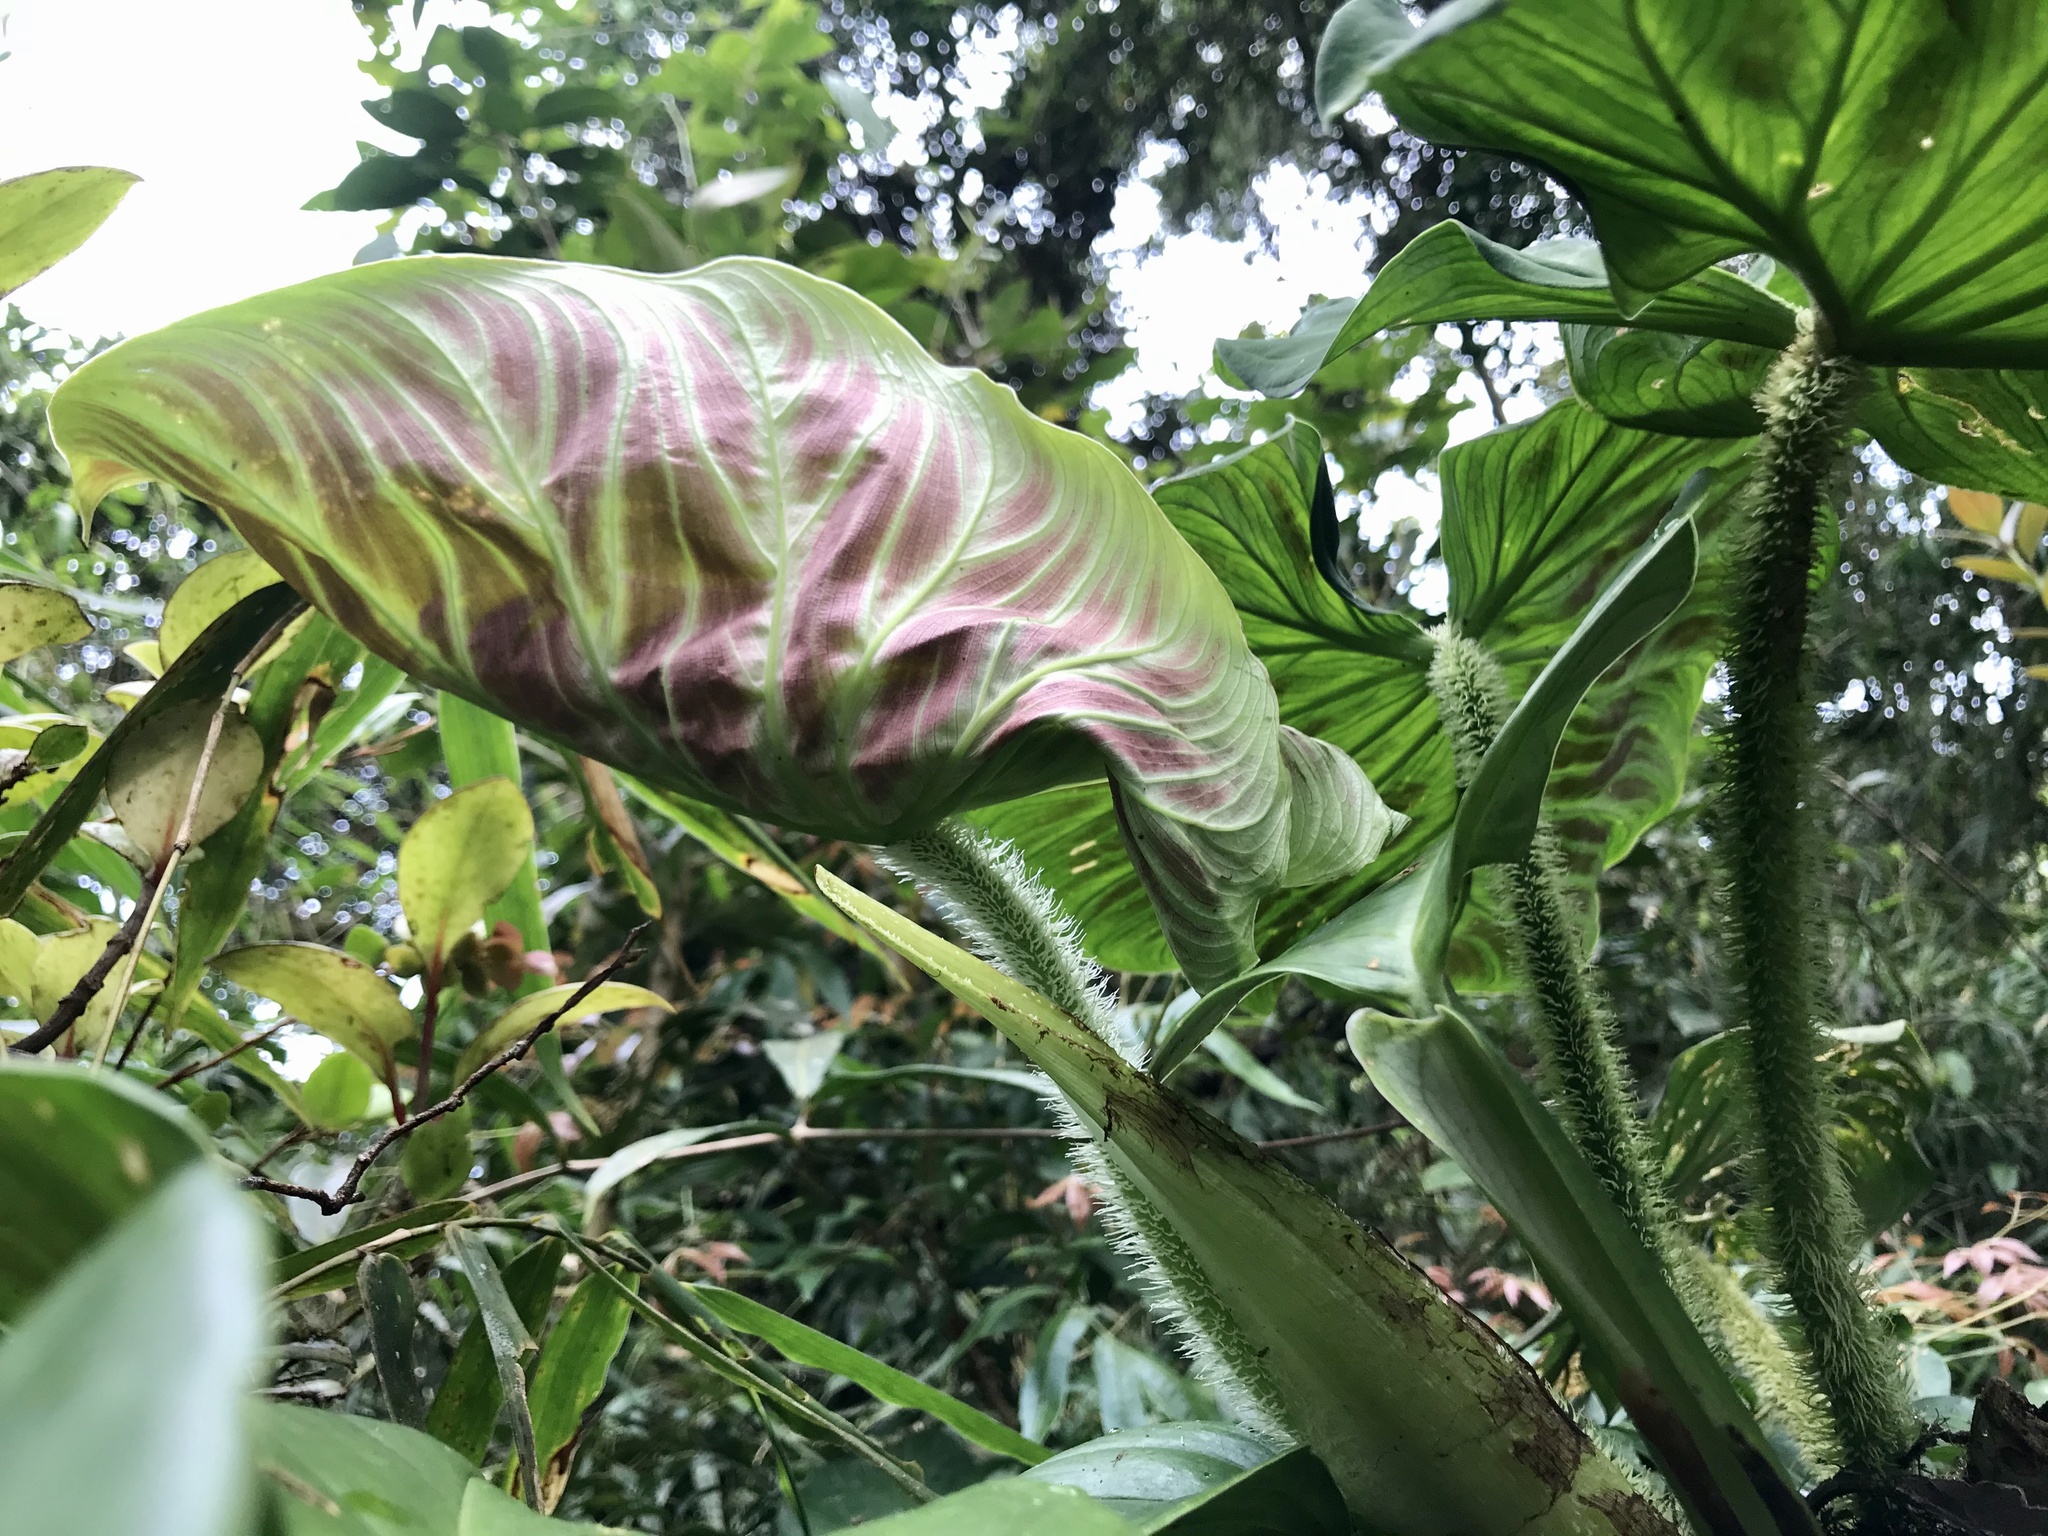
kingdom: Plantae
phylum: Tracheophyta
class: Liliopsida
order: Alismatales
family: Araceae
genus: Philodendron
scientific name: Philodendron verrucosum
